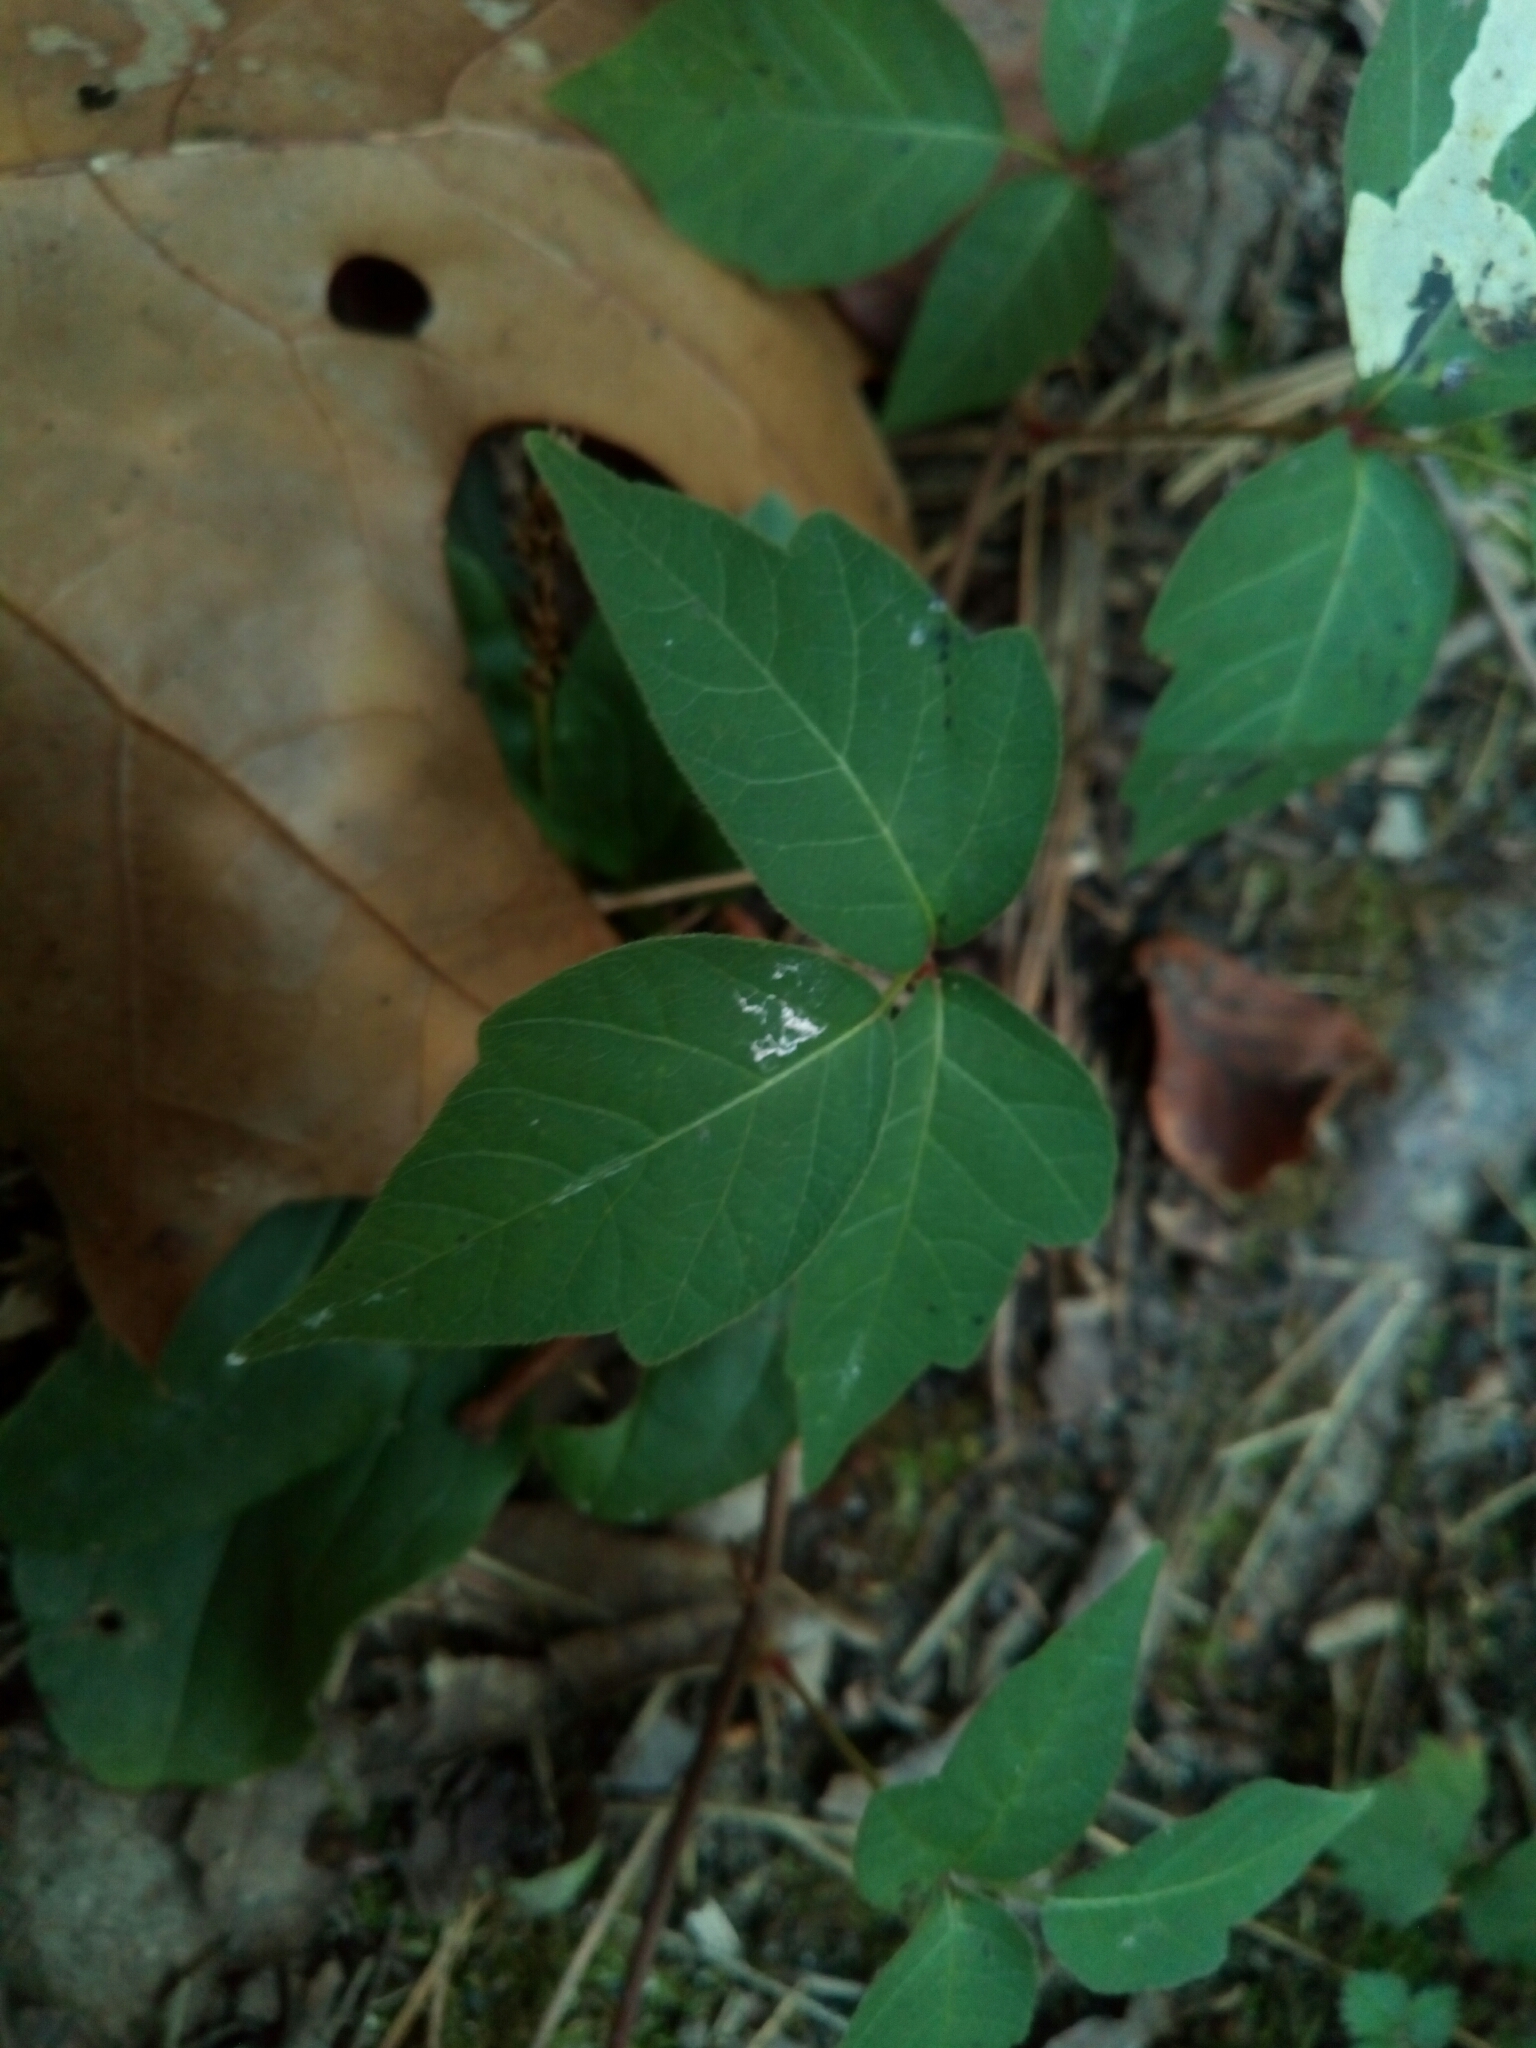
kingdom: Plantae
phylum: Tracheophyta
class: Magnoliopsida
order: Sapindales
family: Anacardiaceae
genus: Toxicodendron
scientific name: Toxicodendron radicans
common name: Poison ivy
